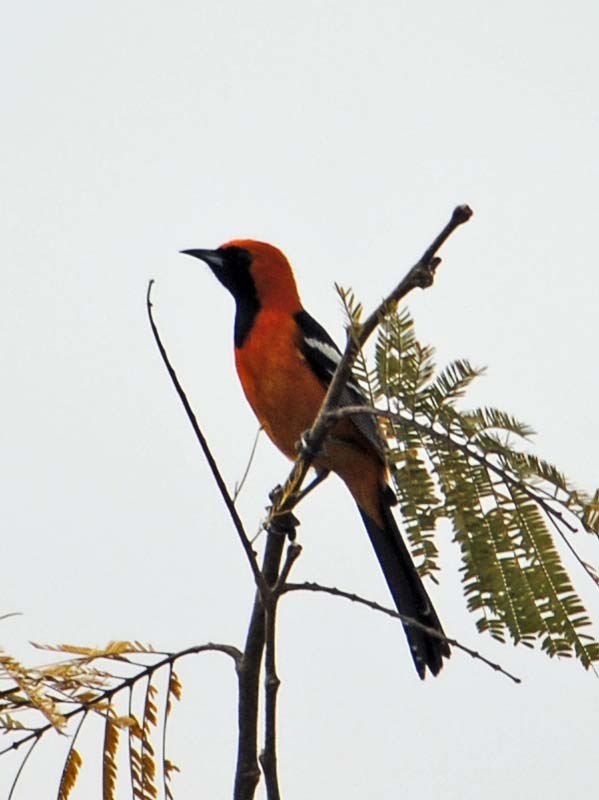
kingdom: Animalia
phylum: Chordata
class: Aves
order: Passeriformes
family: Icteridae
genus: Icterus
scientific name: Icterus cucullatus
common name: Hooded oriole
